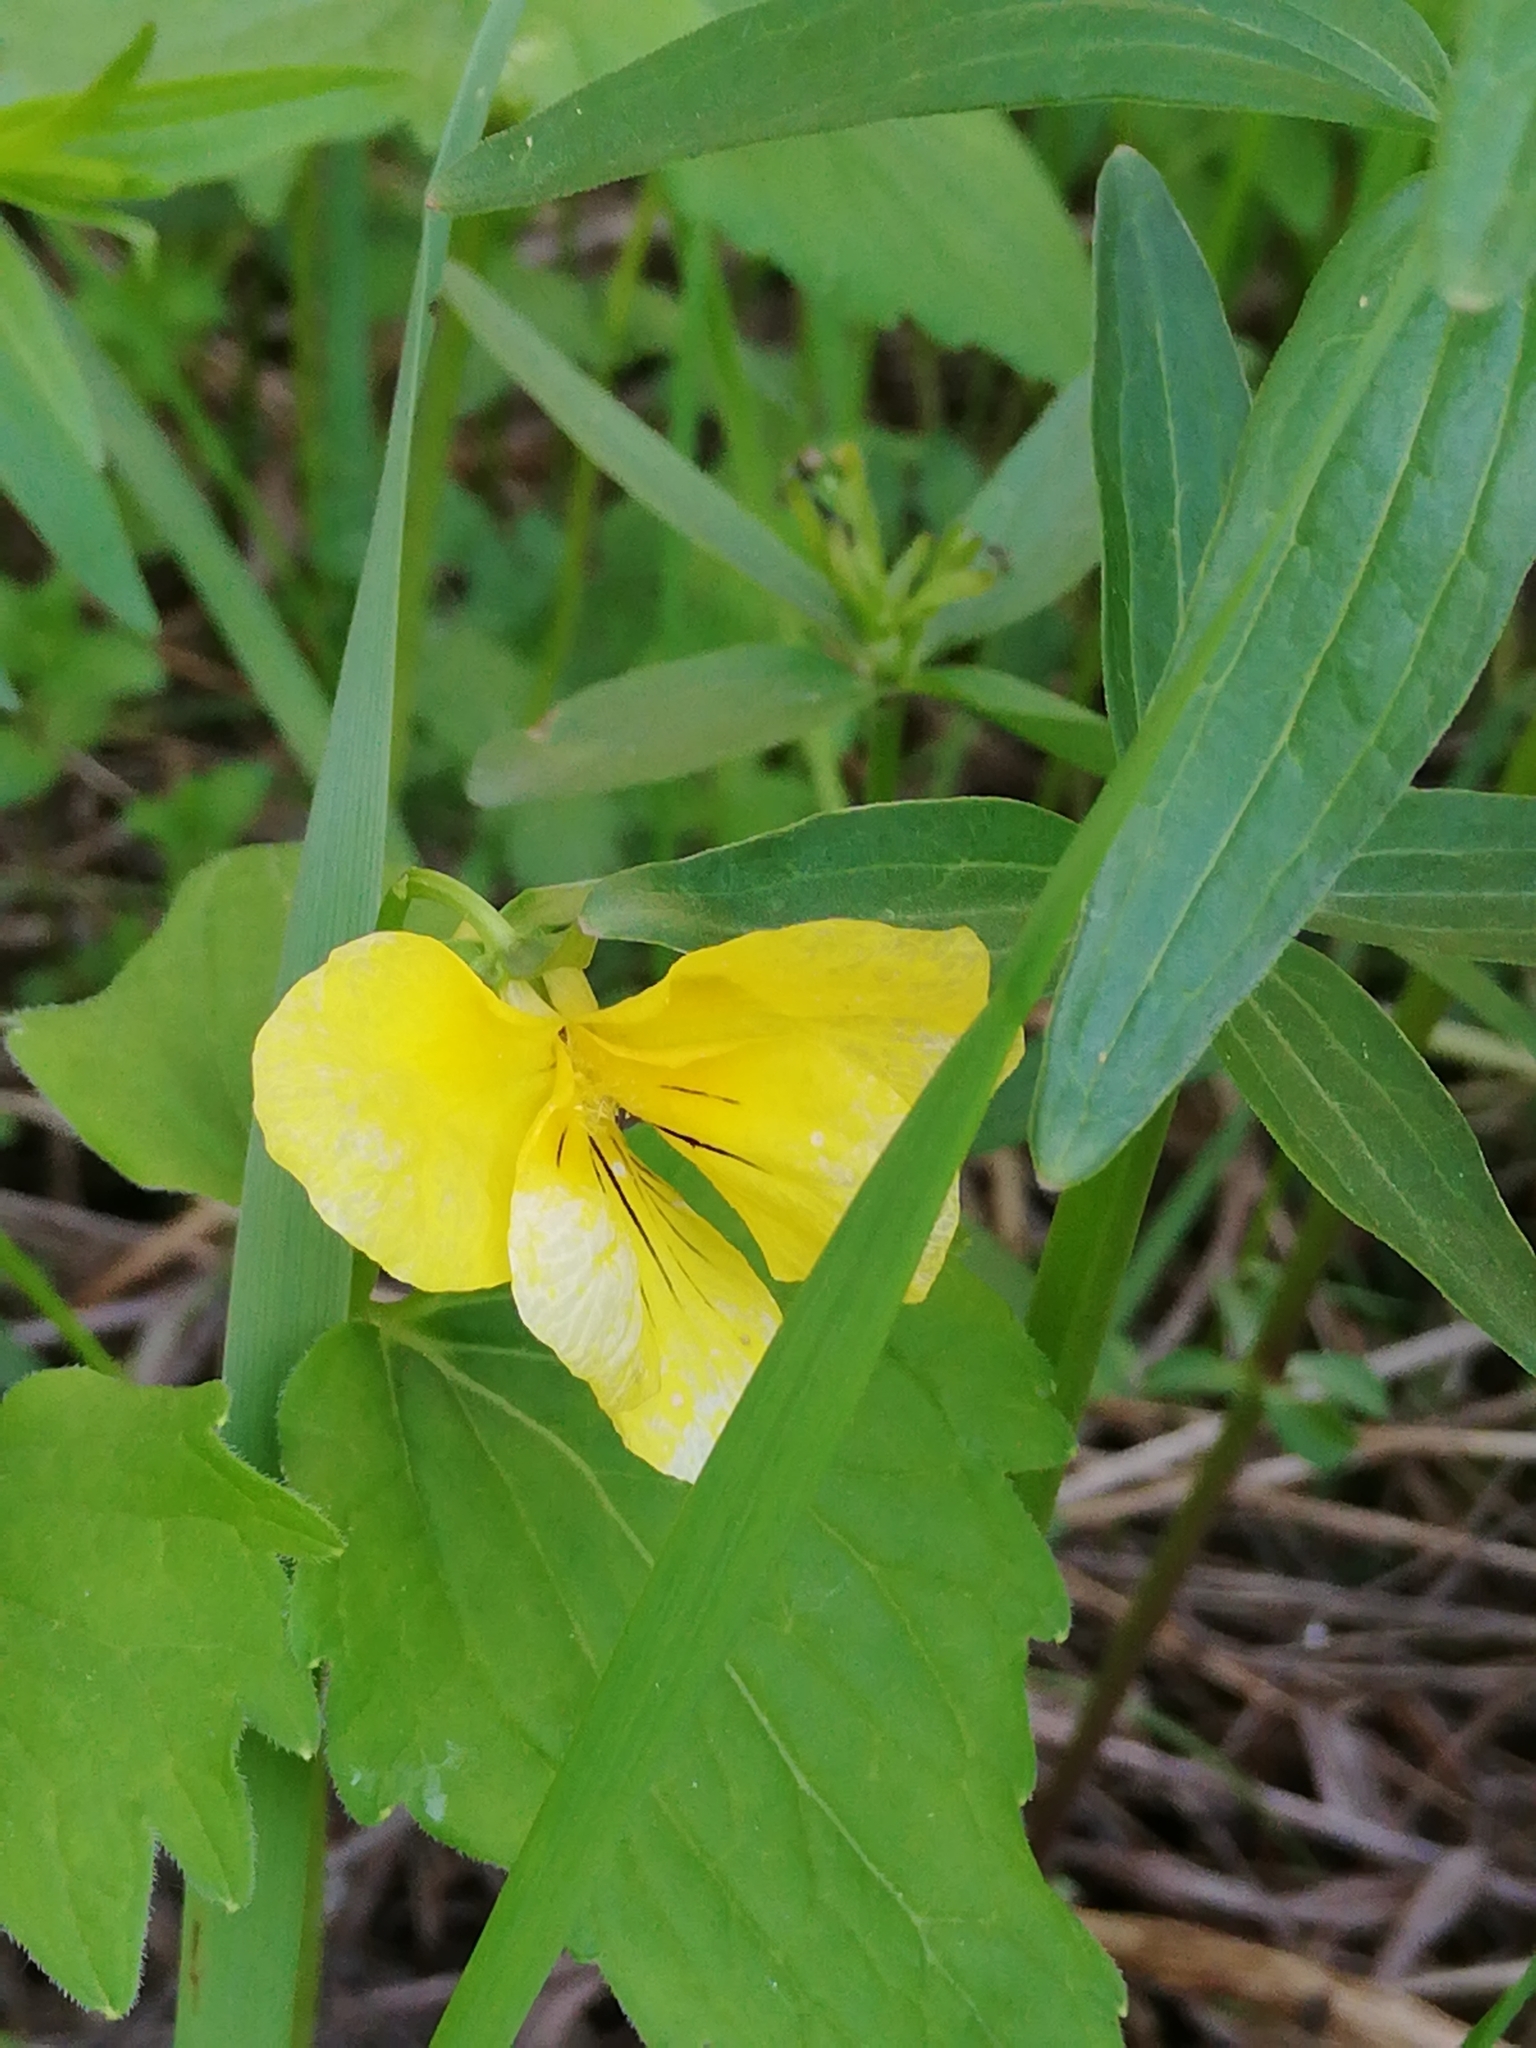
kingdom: Plantae
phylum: Tracheophyta
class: Magnoliopsida
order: Malpighiales
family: Violaceae
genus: Viola
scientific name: Viola uniflora
